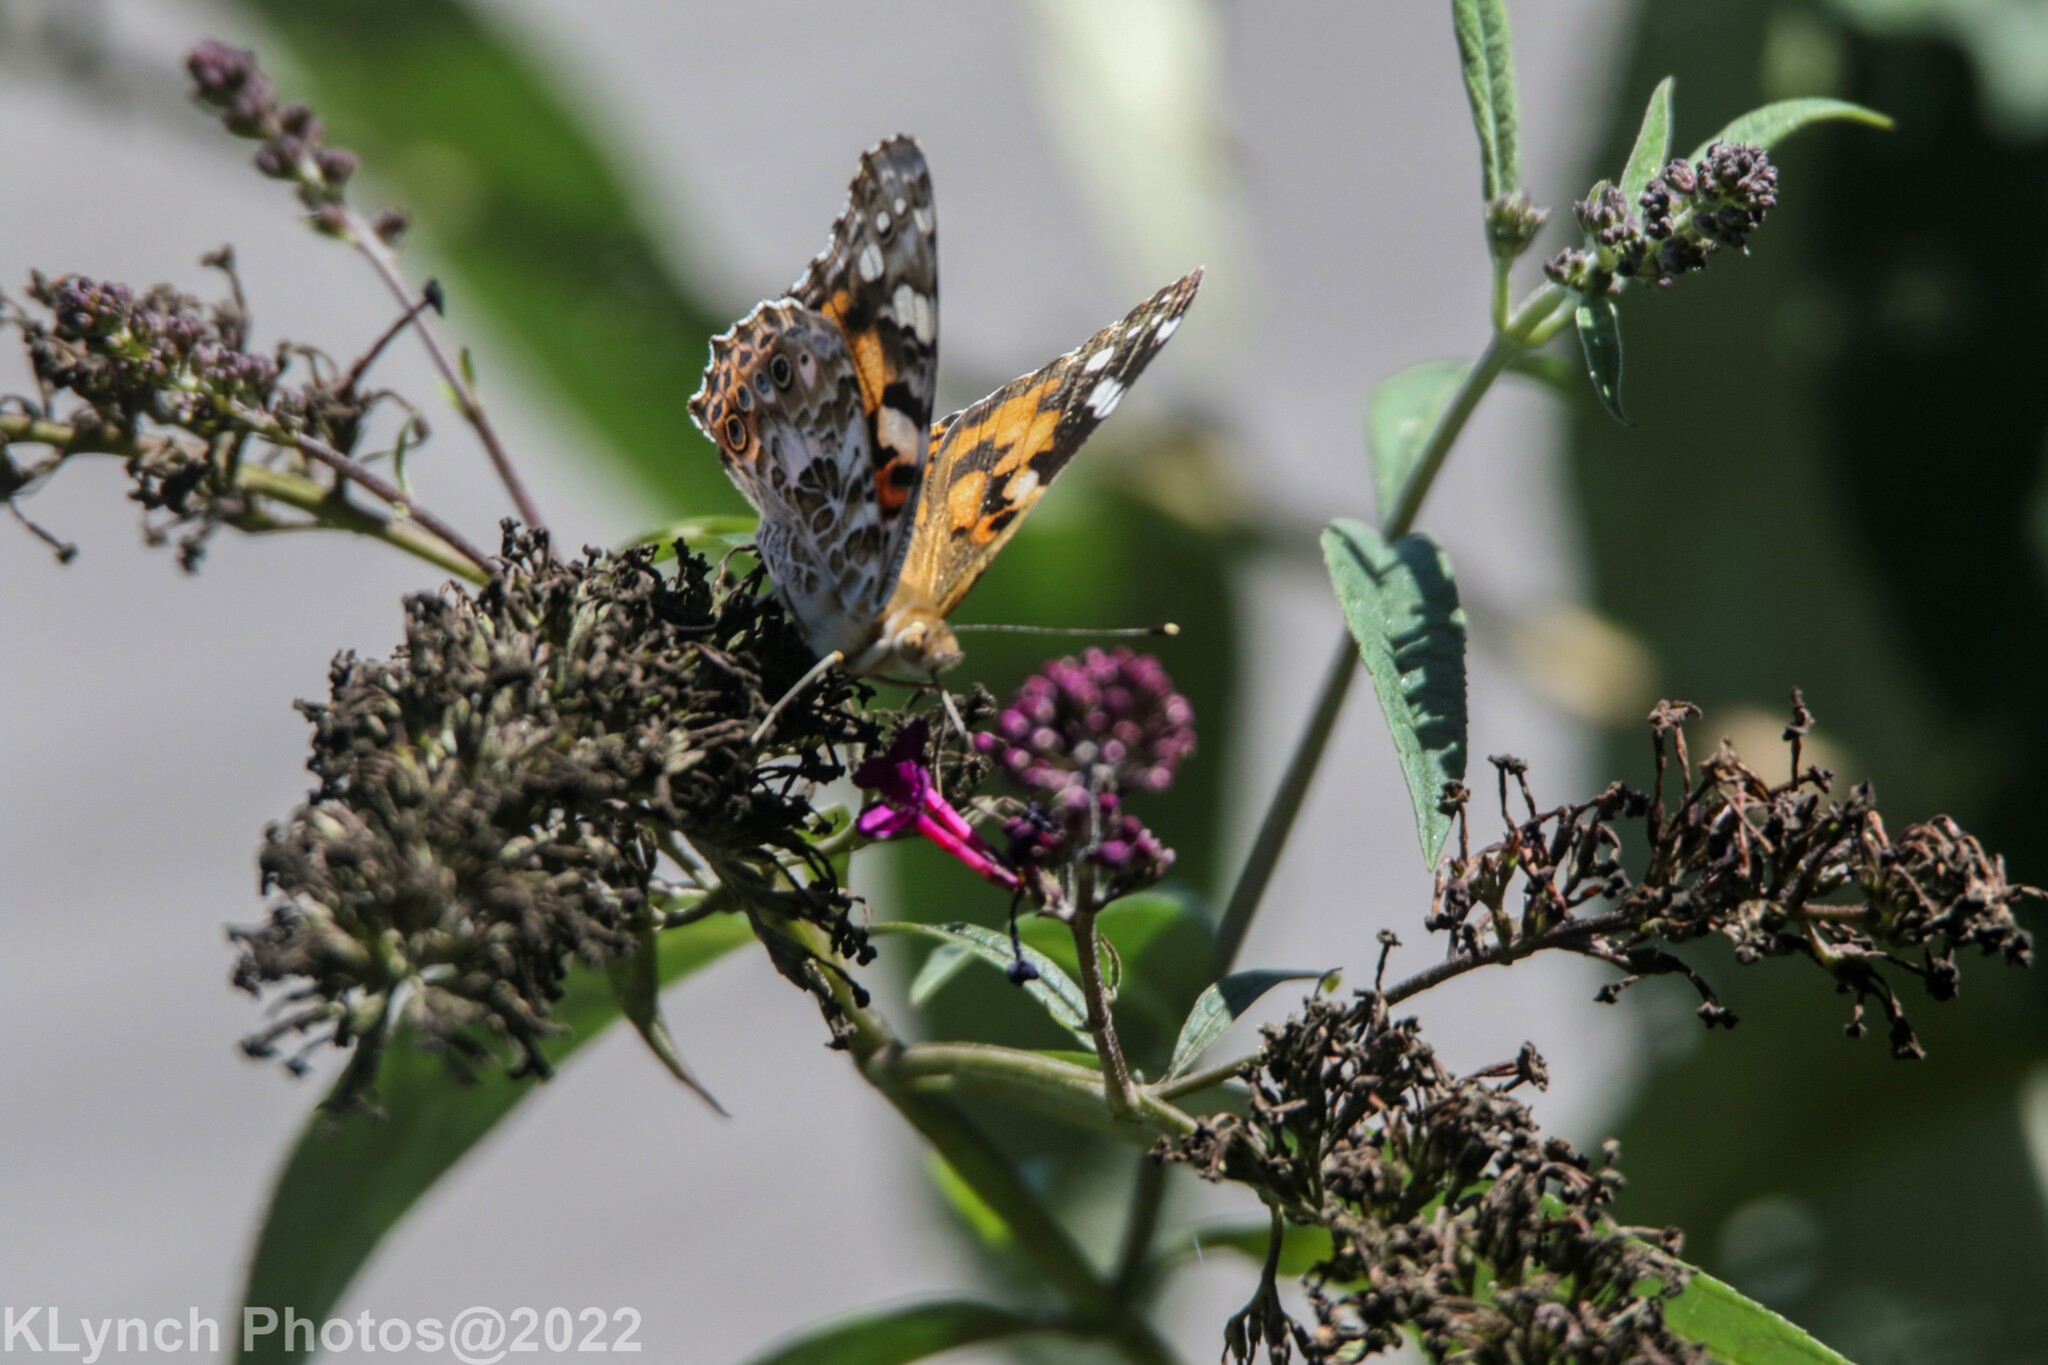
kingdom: Animalia
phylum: Arthropoda
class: Insecta
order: Lepidoptera
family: Nymphalidae
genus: Vanessa
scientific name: Vanessa cardui
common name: Painted lady
